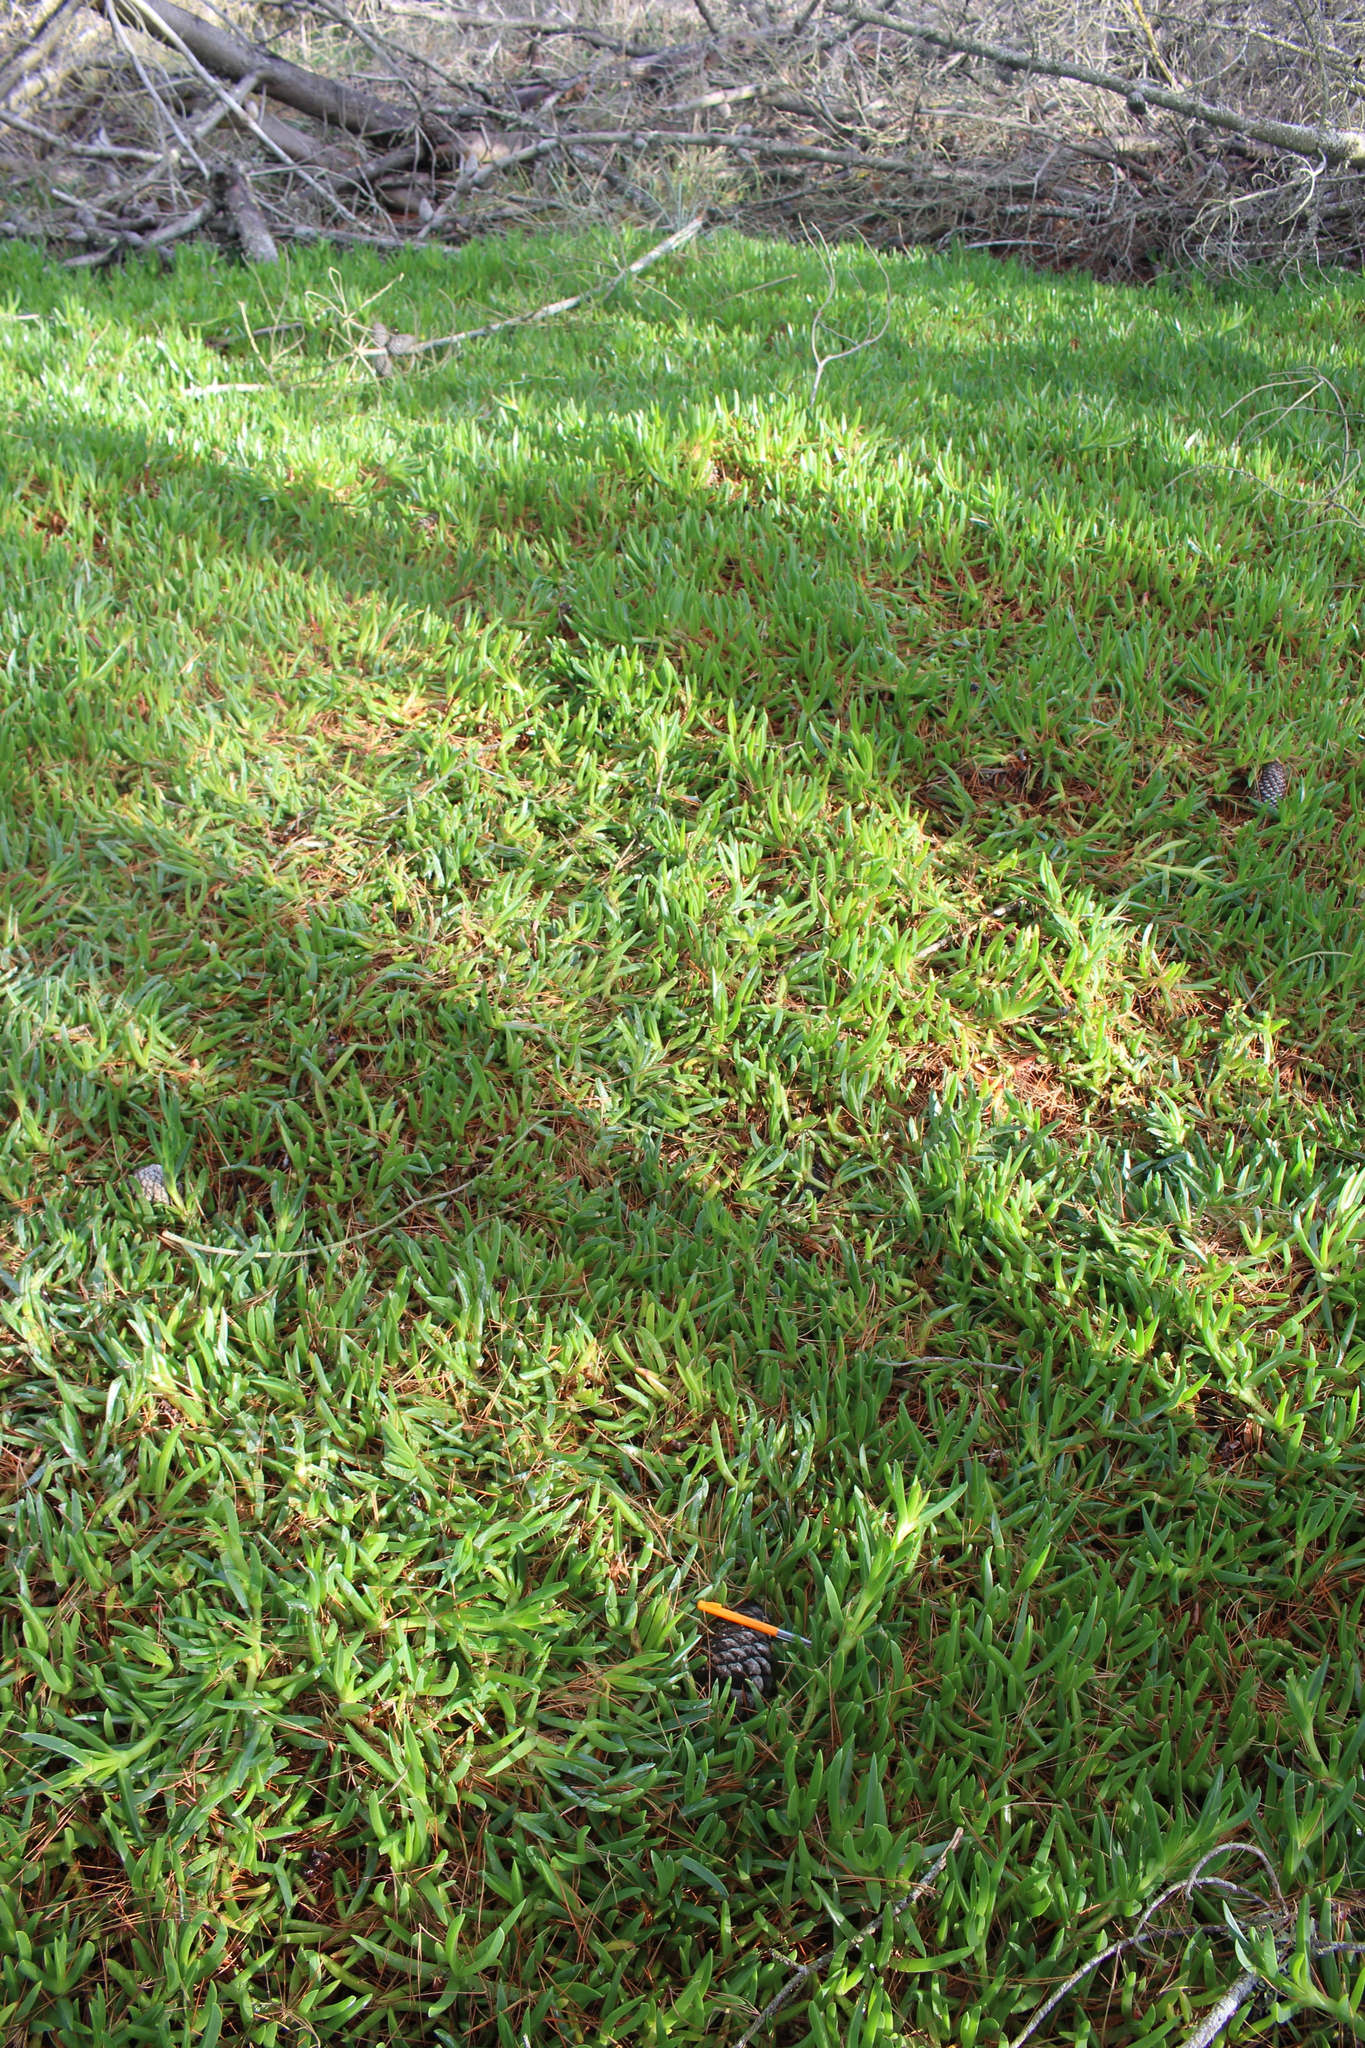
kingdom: Plantae
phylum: Tracheophyta
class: Magnoliopsida
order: Caryophyllales
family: Aizoaceae
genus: Carpobrotus
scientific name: Carpobrotus chilensis
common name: Sea fig
